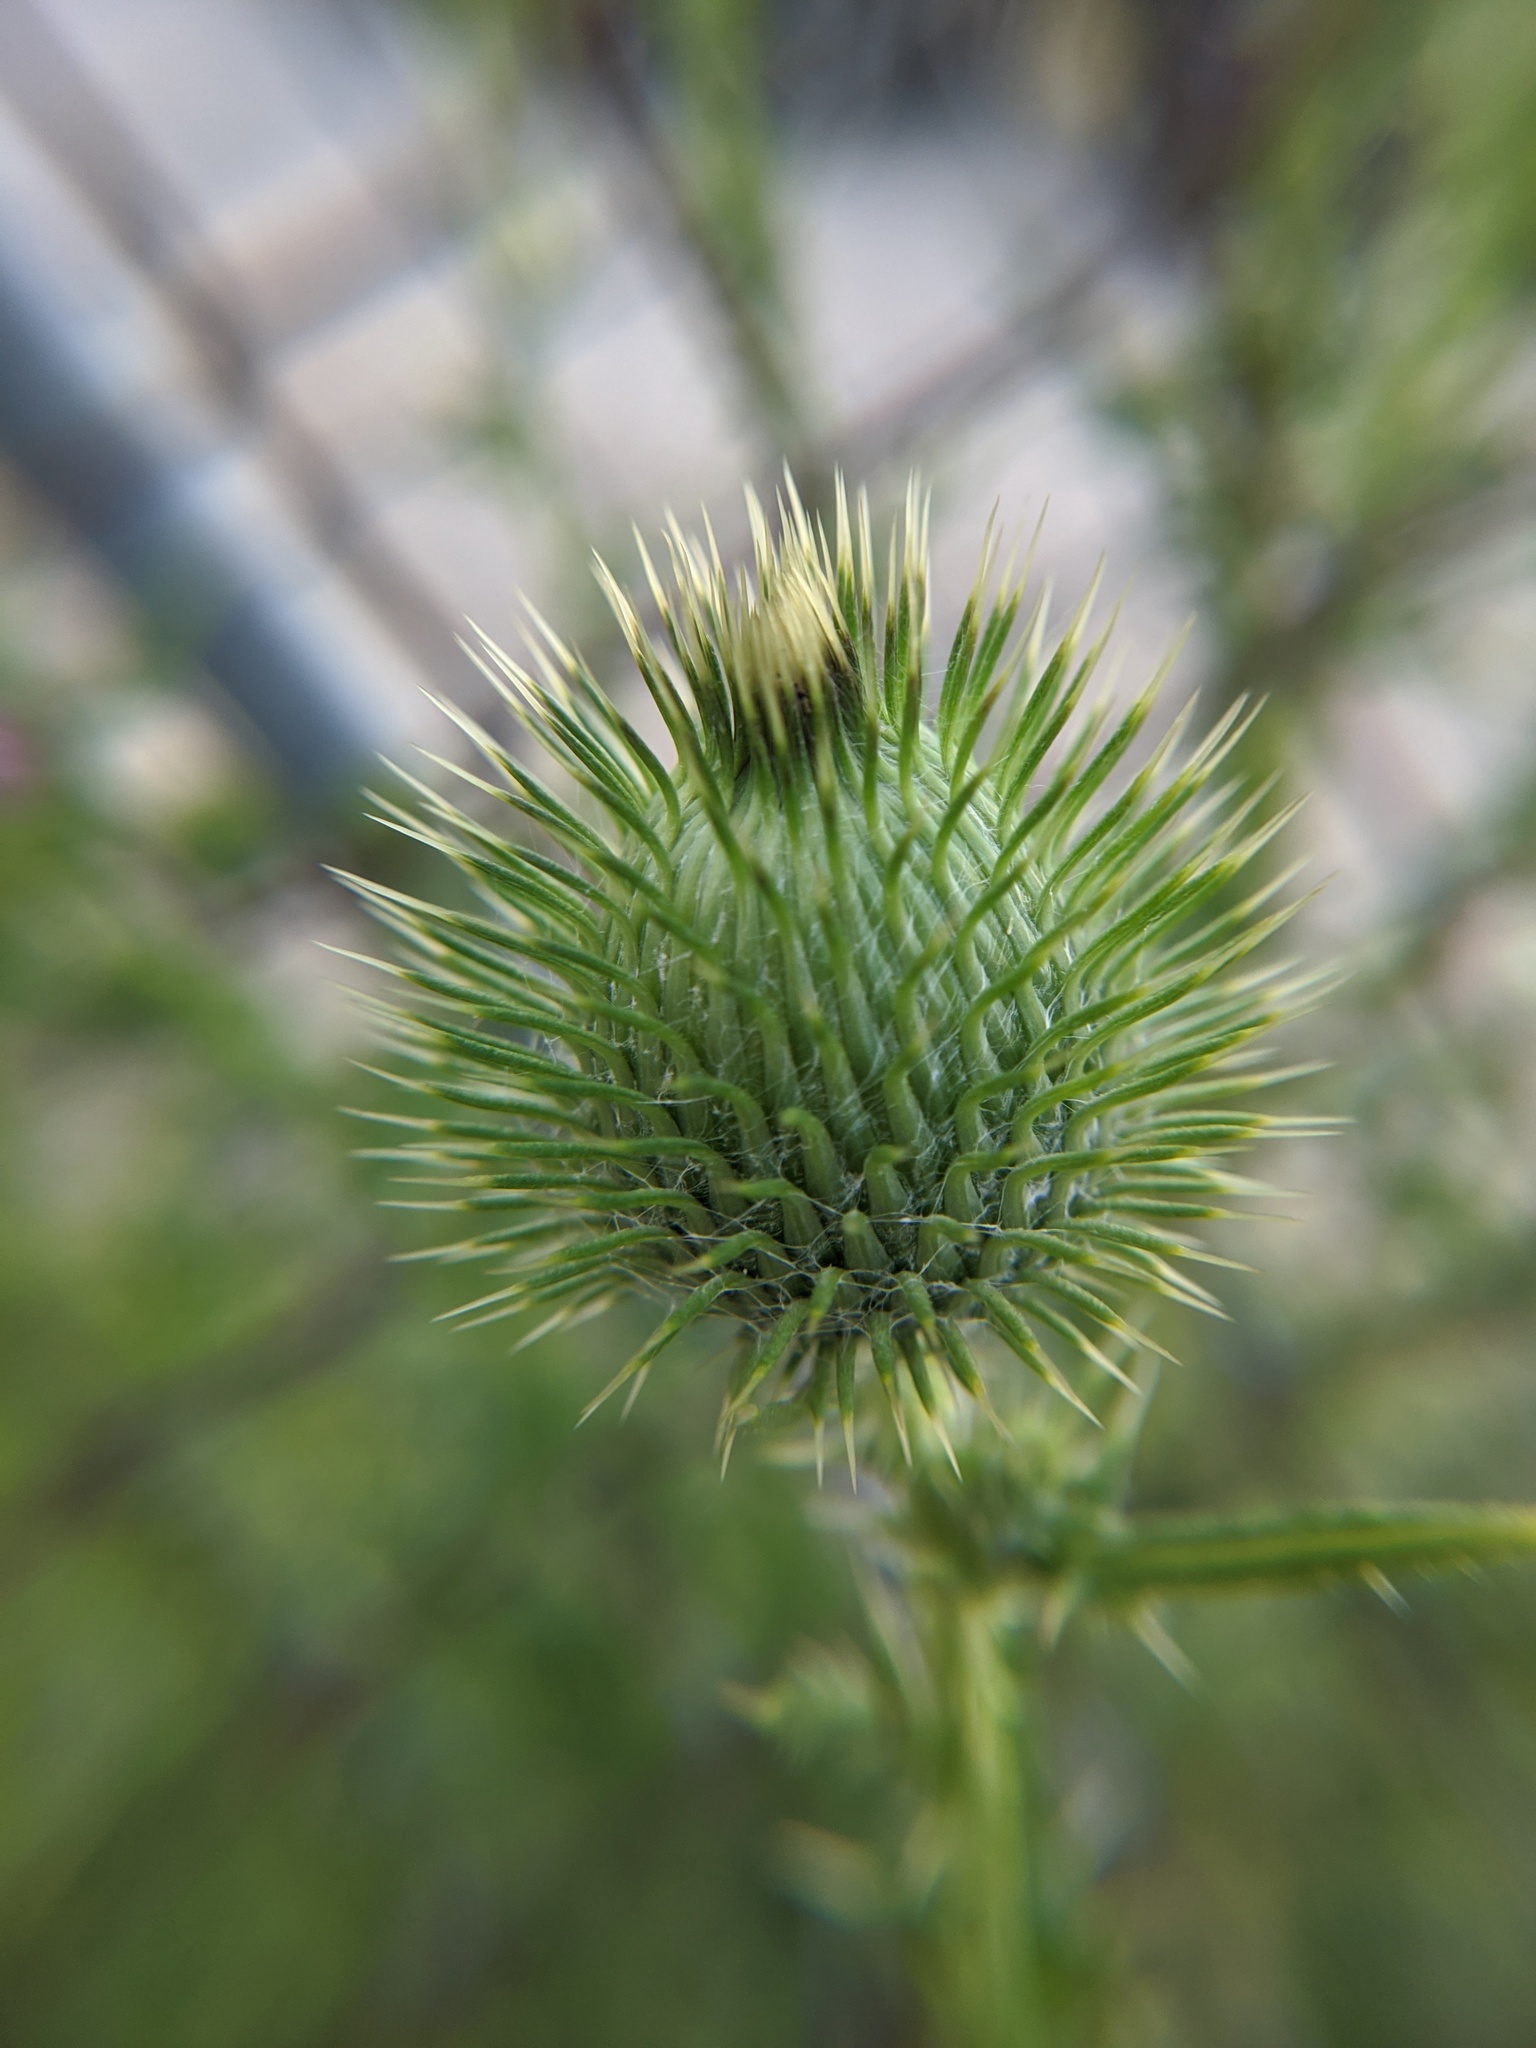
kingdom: Plantae
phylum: Tracheophyta
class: Magnoliopsida
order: Asterales
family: Asteraceae
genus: Cirsium
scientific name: Cirsium vulgare
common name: Bull thistle
